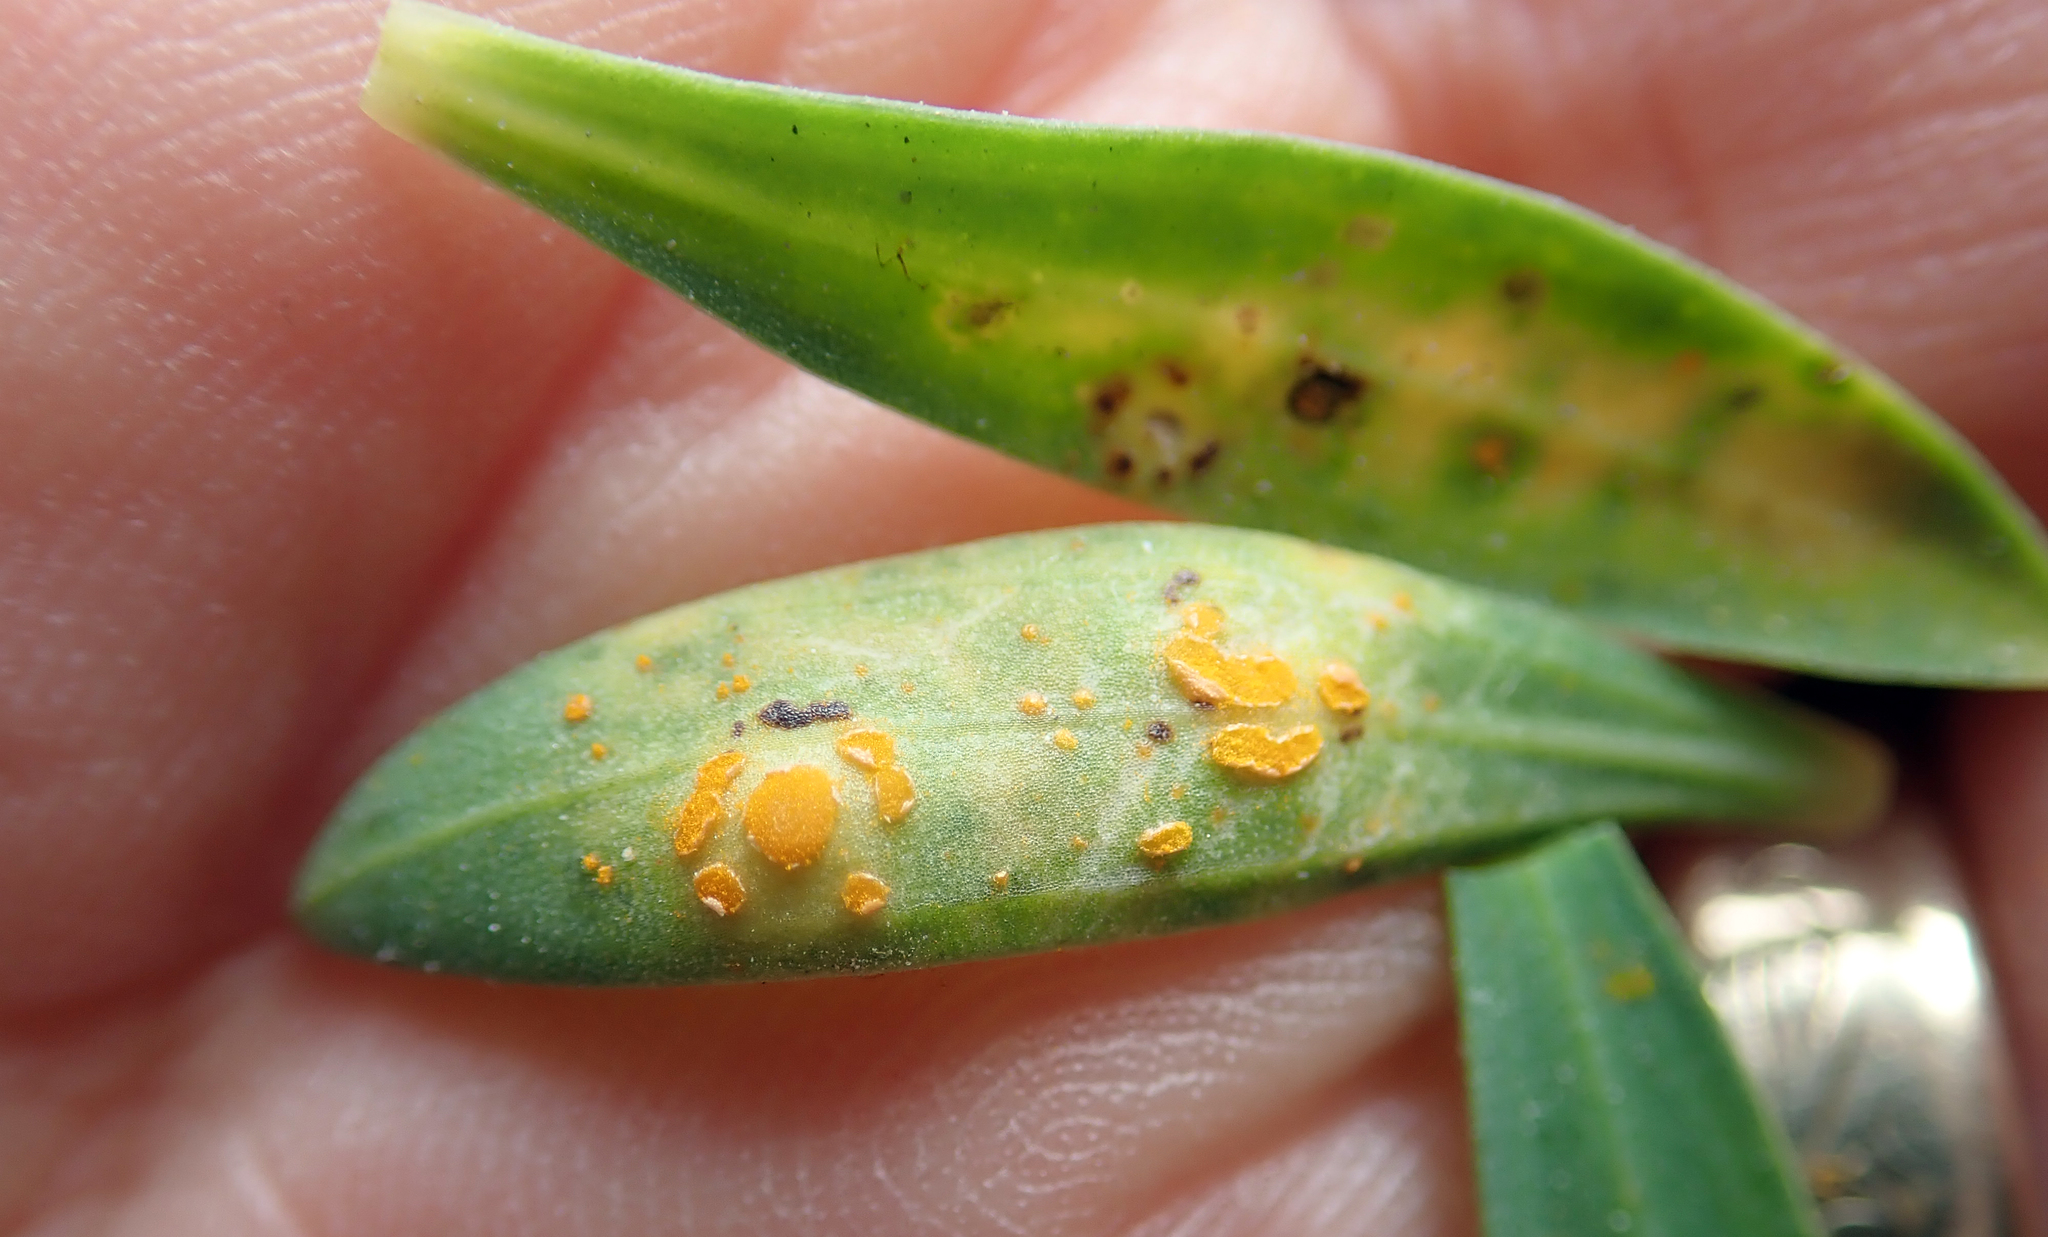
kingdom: Fungi
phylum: Basidiomycota
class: Pucciniomycetes
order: Pucciniales
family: Melampsoraceae
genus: Melampsora
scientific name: Melampsora lini
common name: Flax rust
